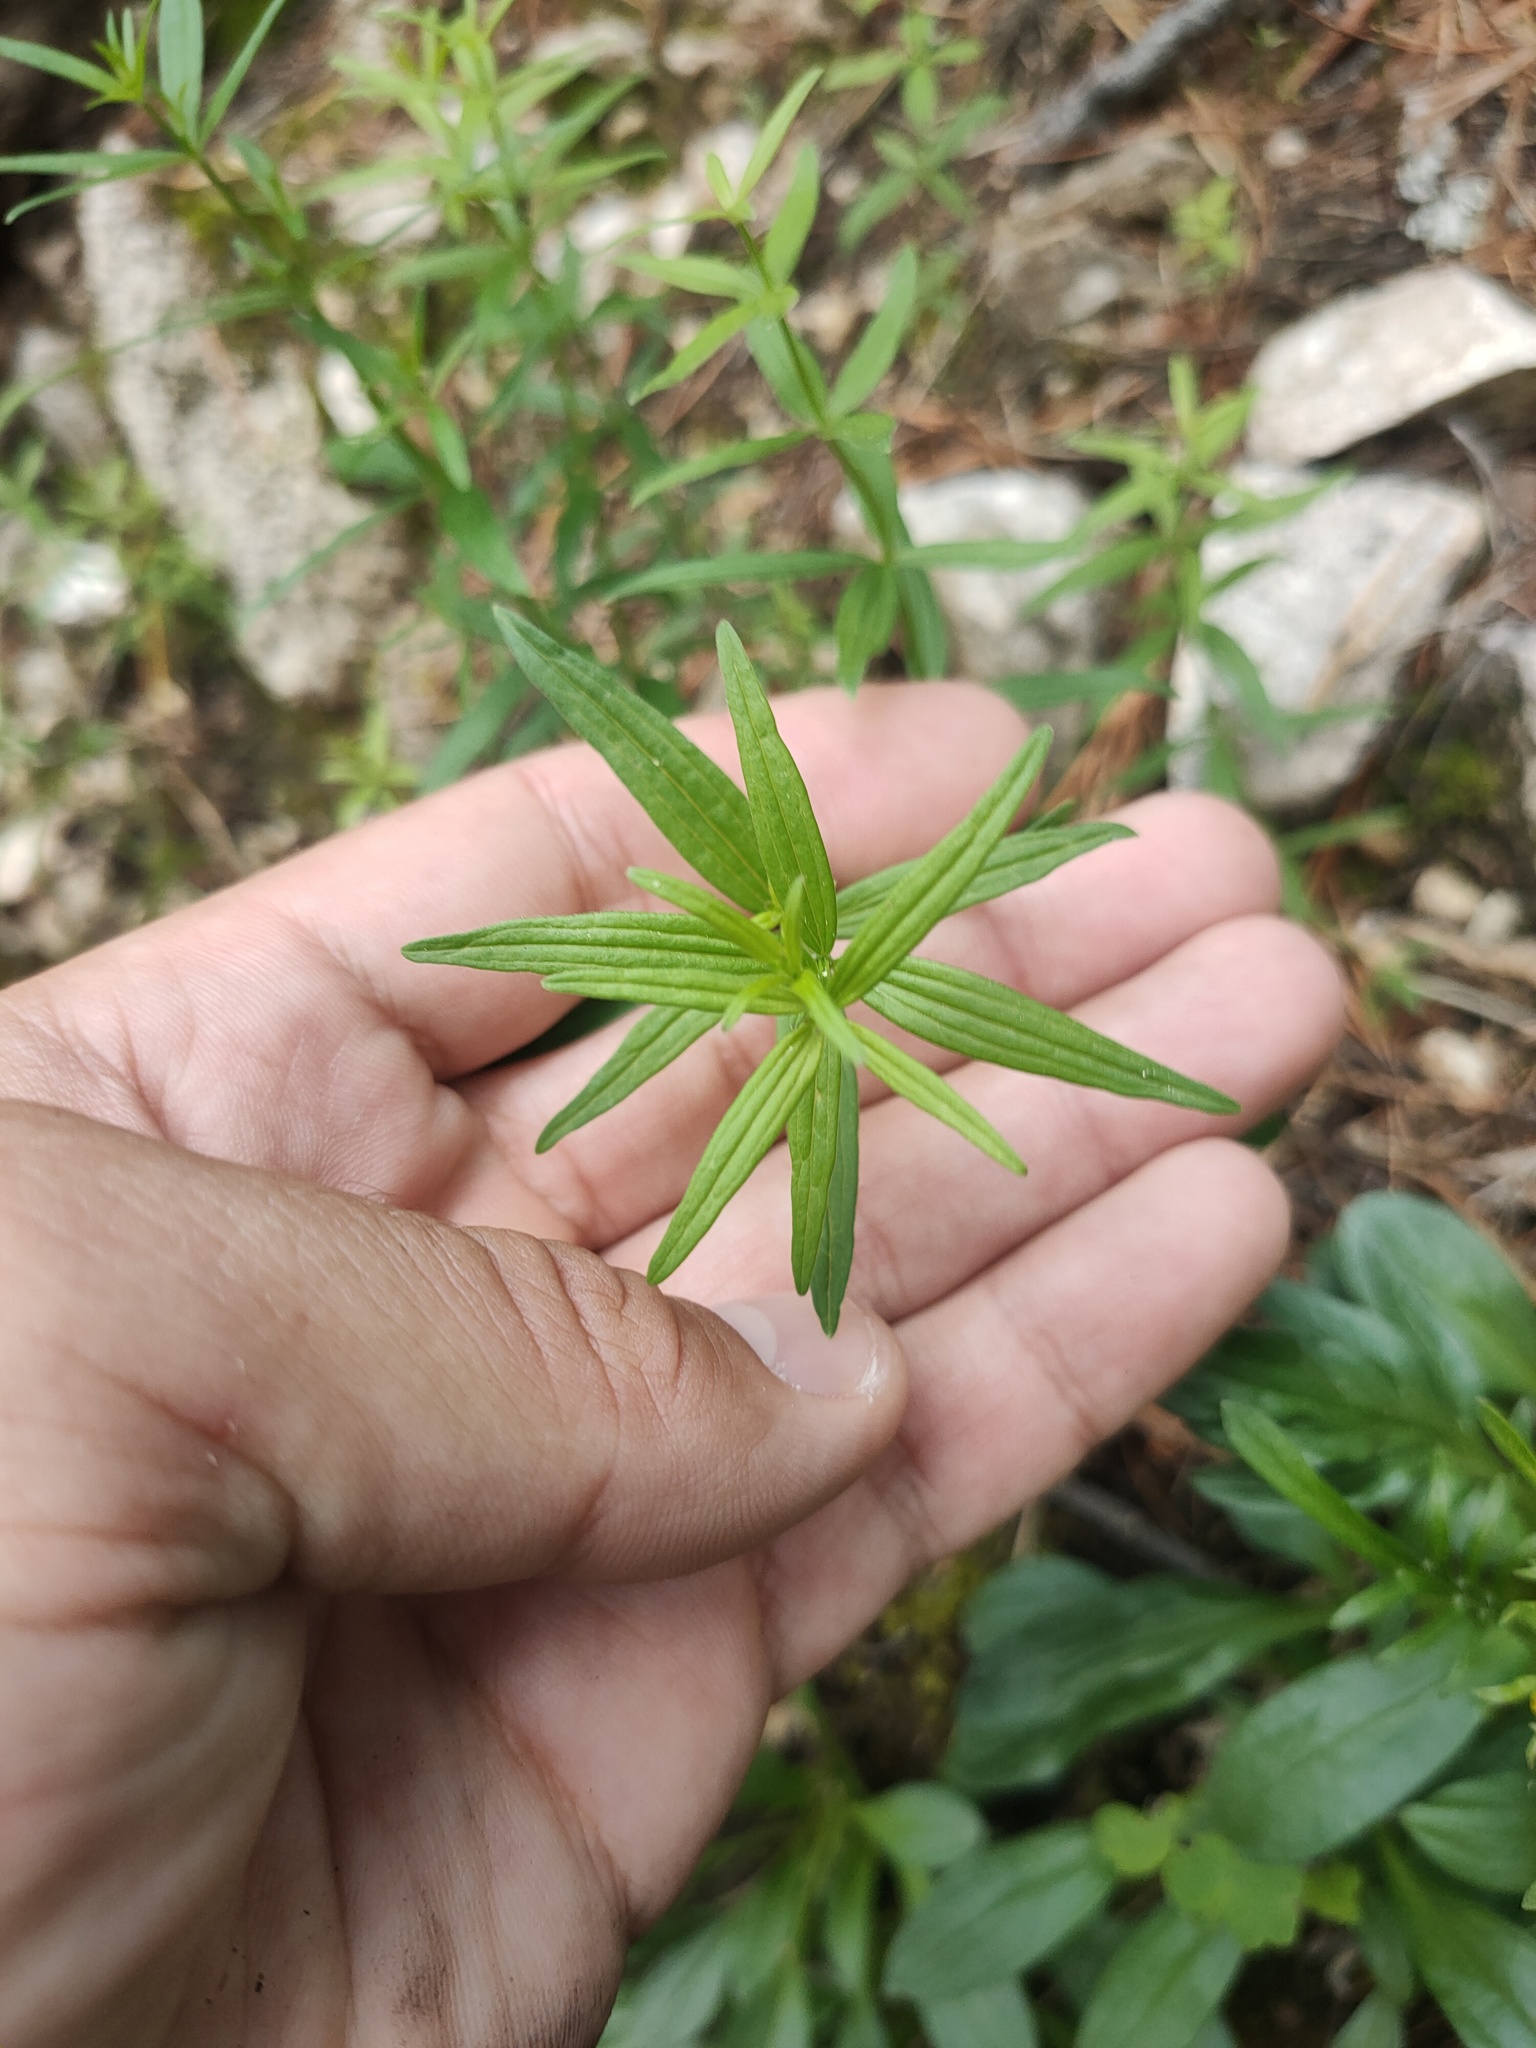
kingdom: Plantae
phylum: Tracheophyta
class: Magnoliopsida
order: Gentianales
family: Rubiaceae
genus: Galium
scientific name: Galium boreale
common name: Northern bedstraw
